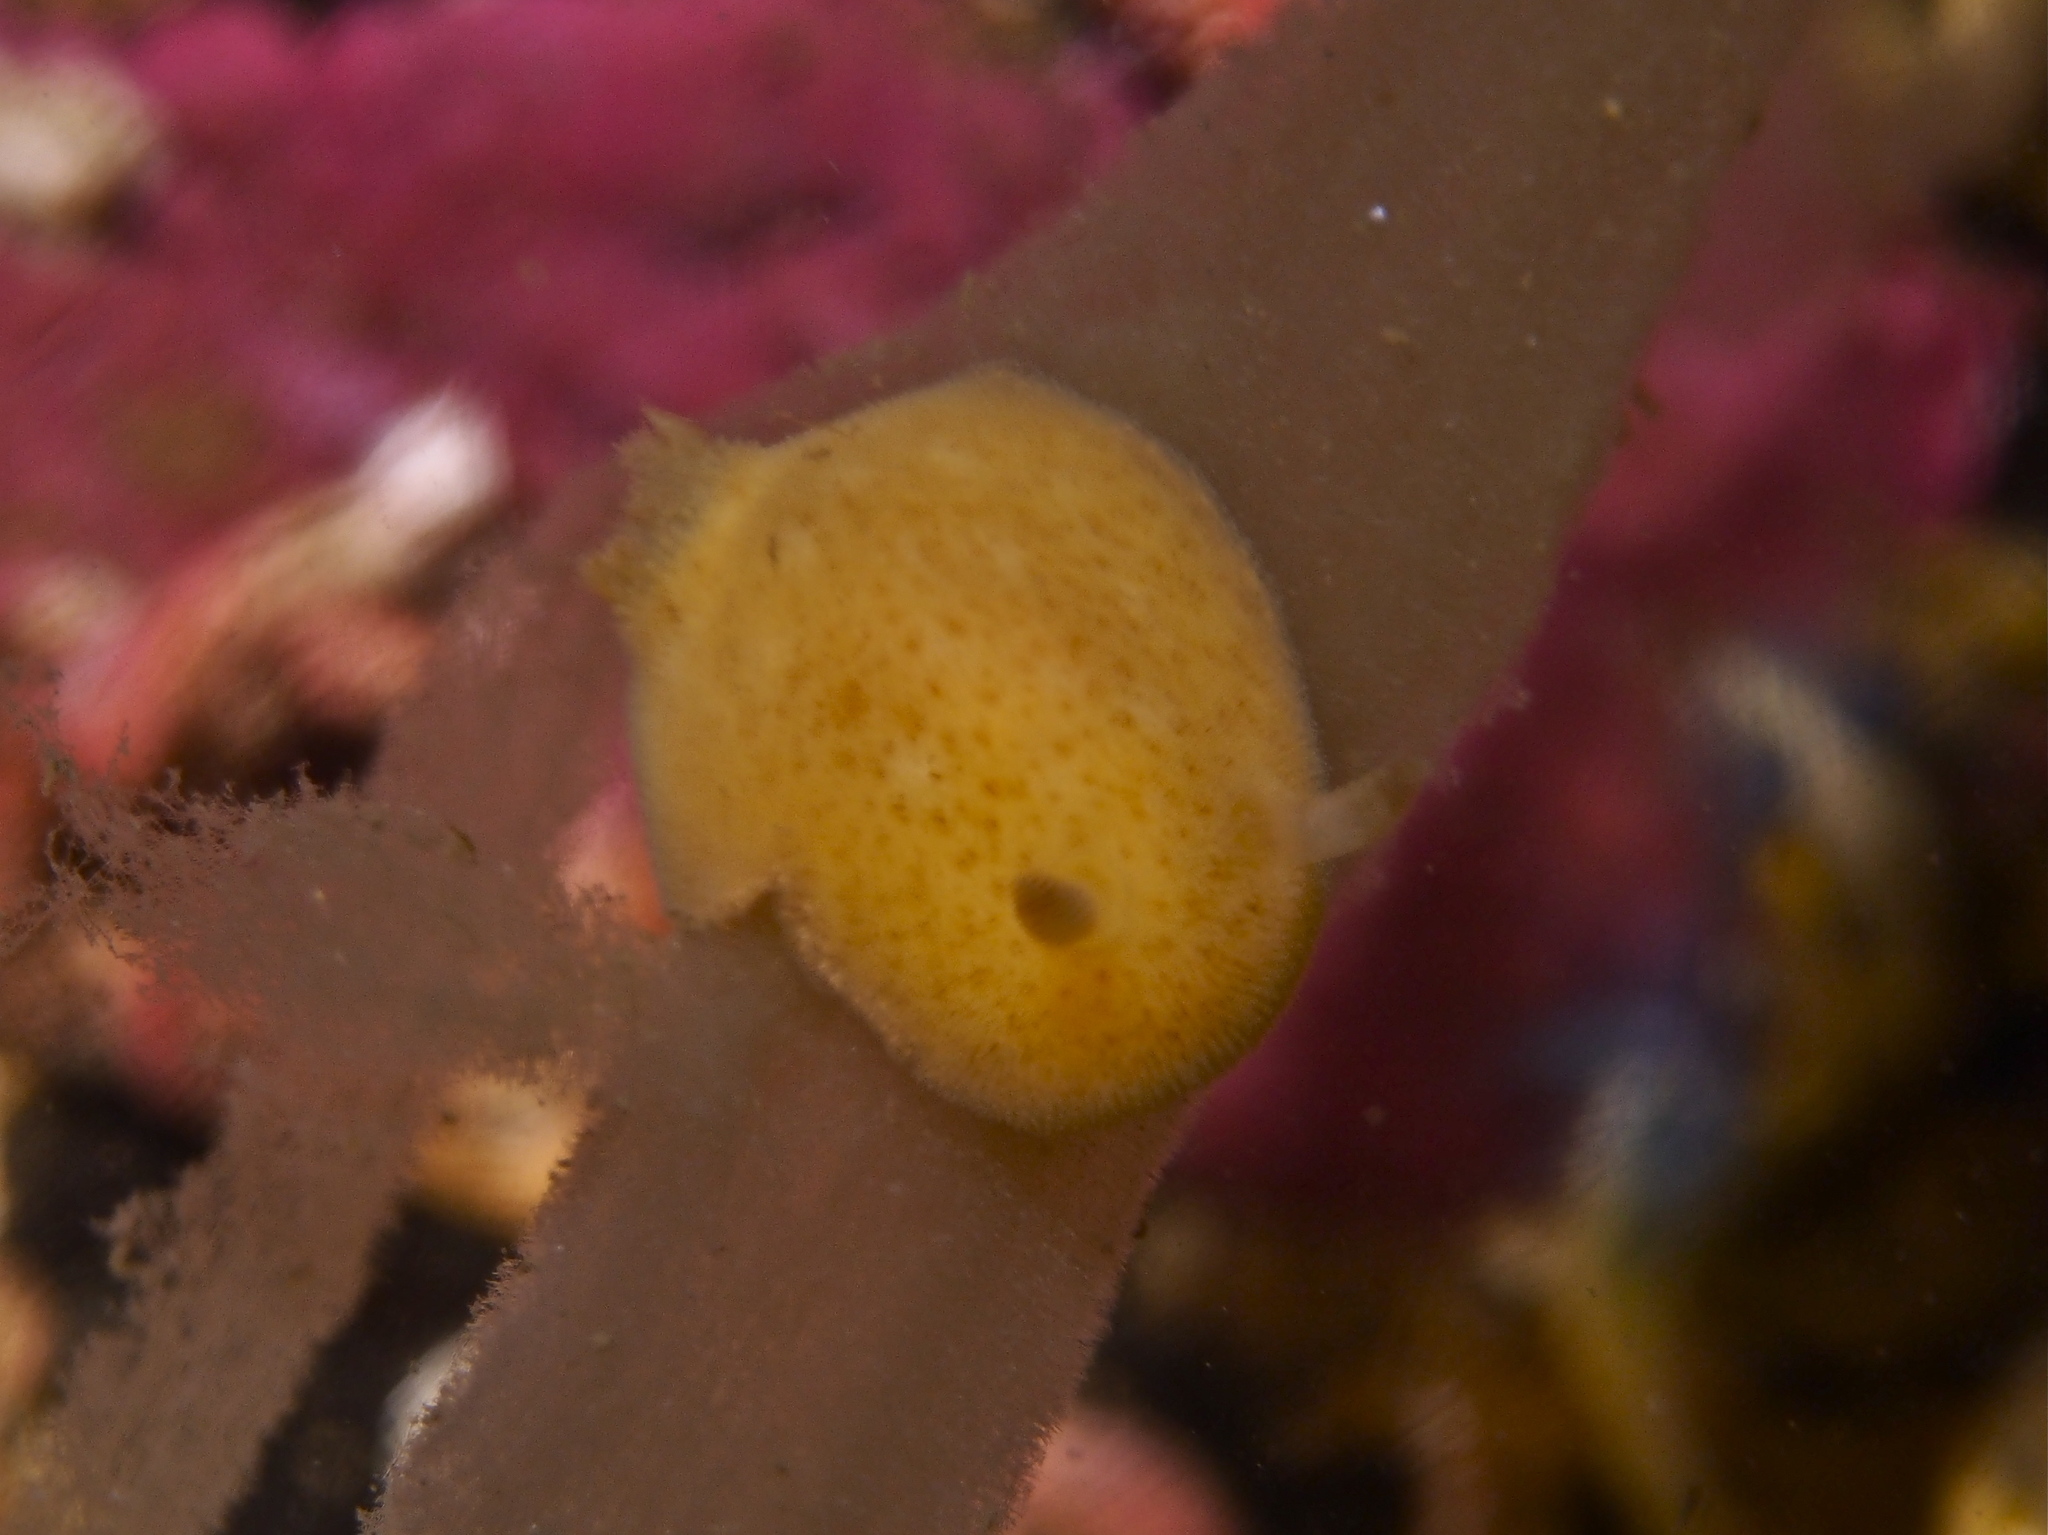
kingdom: Animalia
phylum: Mollusca
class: Gastropoda
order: Nudibranchia
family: Discodorididae
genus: Jorunna
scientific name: Jorunna tomentosa
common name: Grey sea slug
